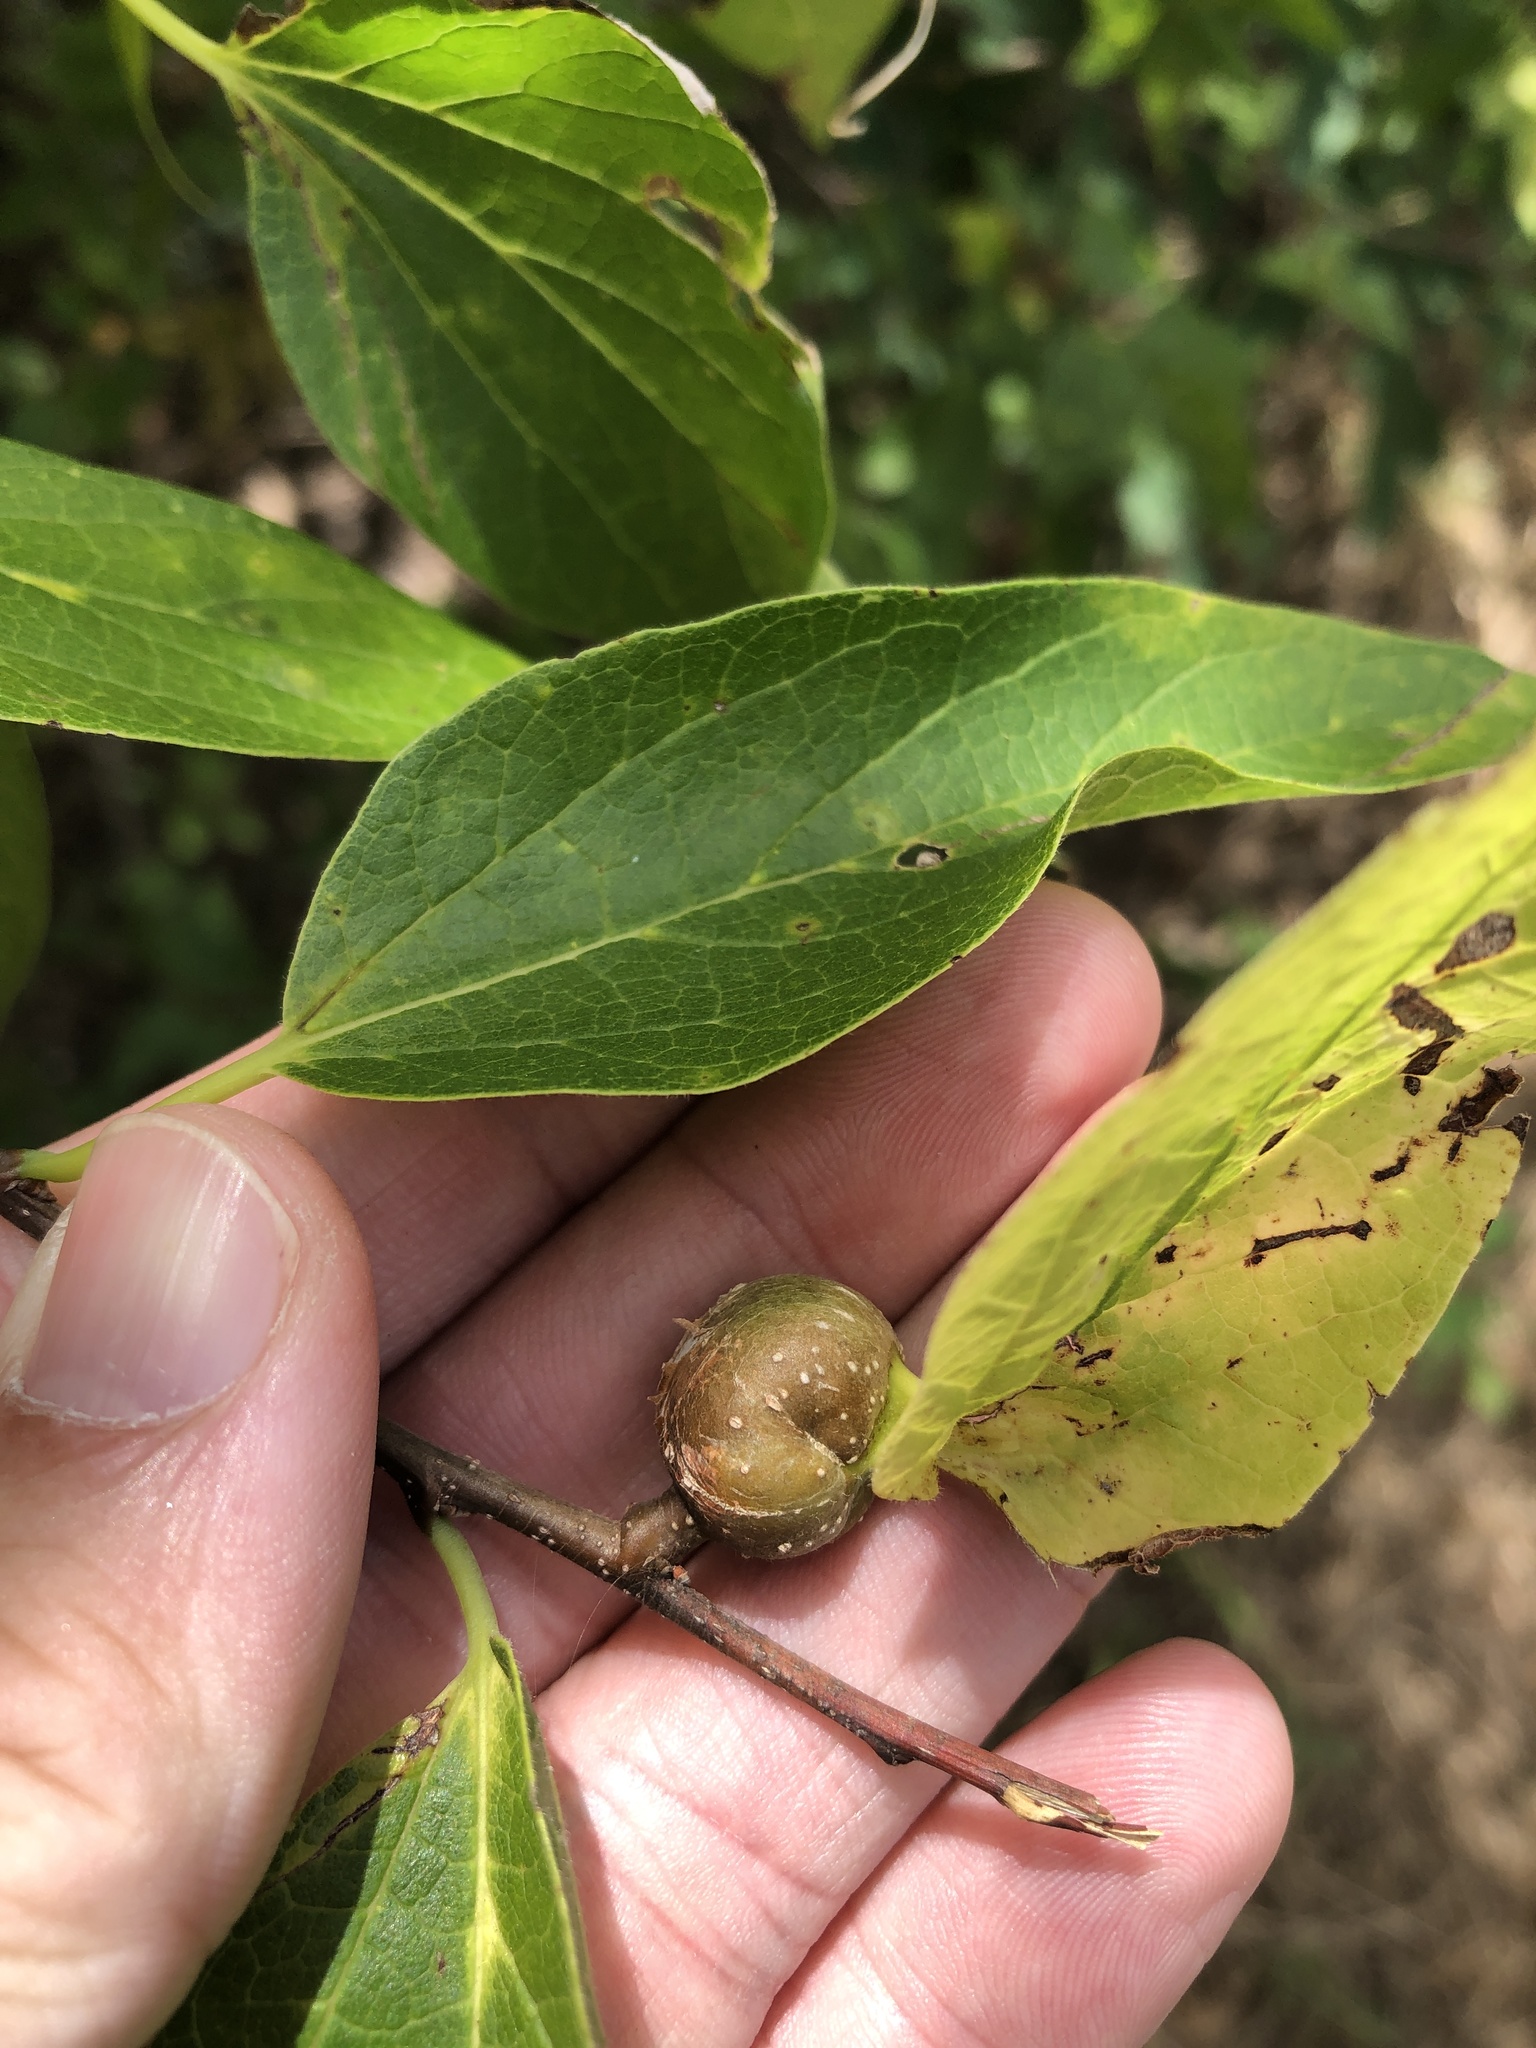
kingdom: Animalia
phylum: Arthropoda
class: Insecta
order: Hemiptera
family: Aphalaridae
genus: Pachypsylla
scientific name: Pachypsylla venusta
